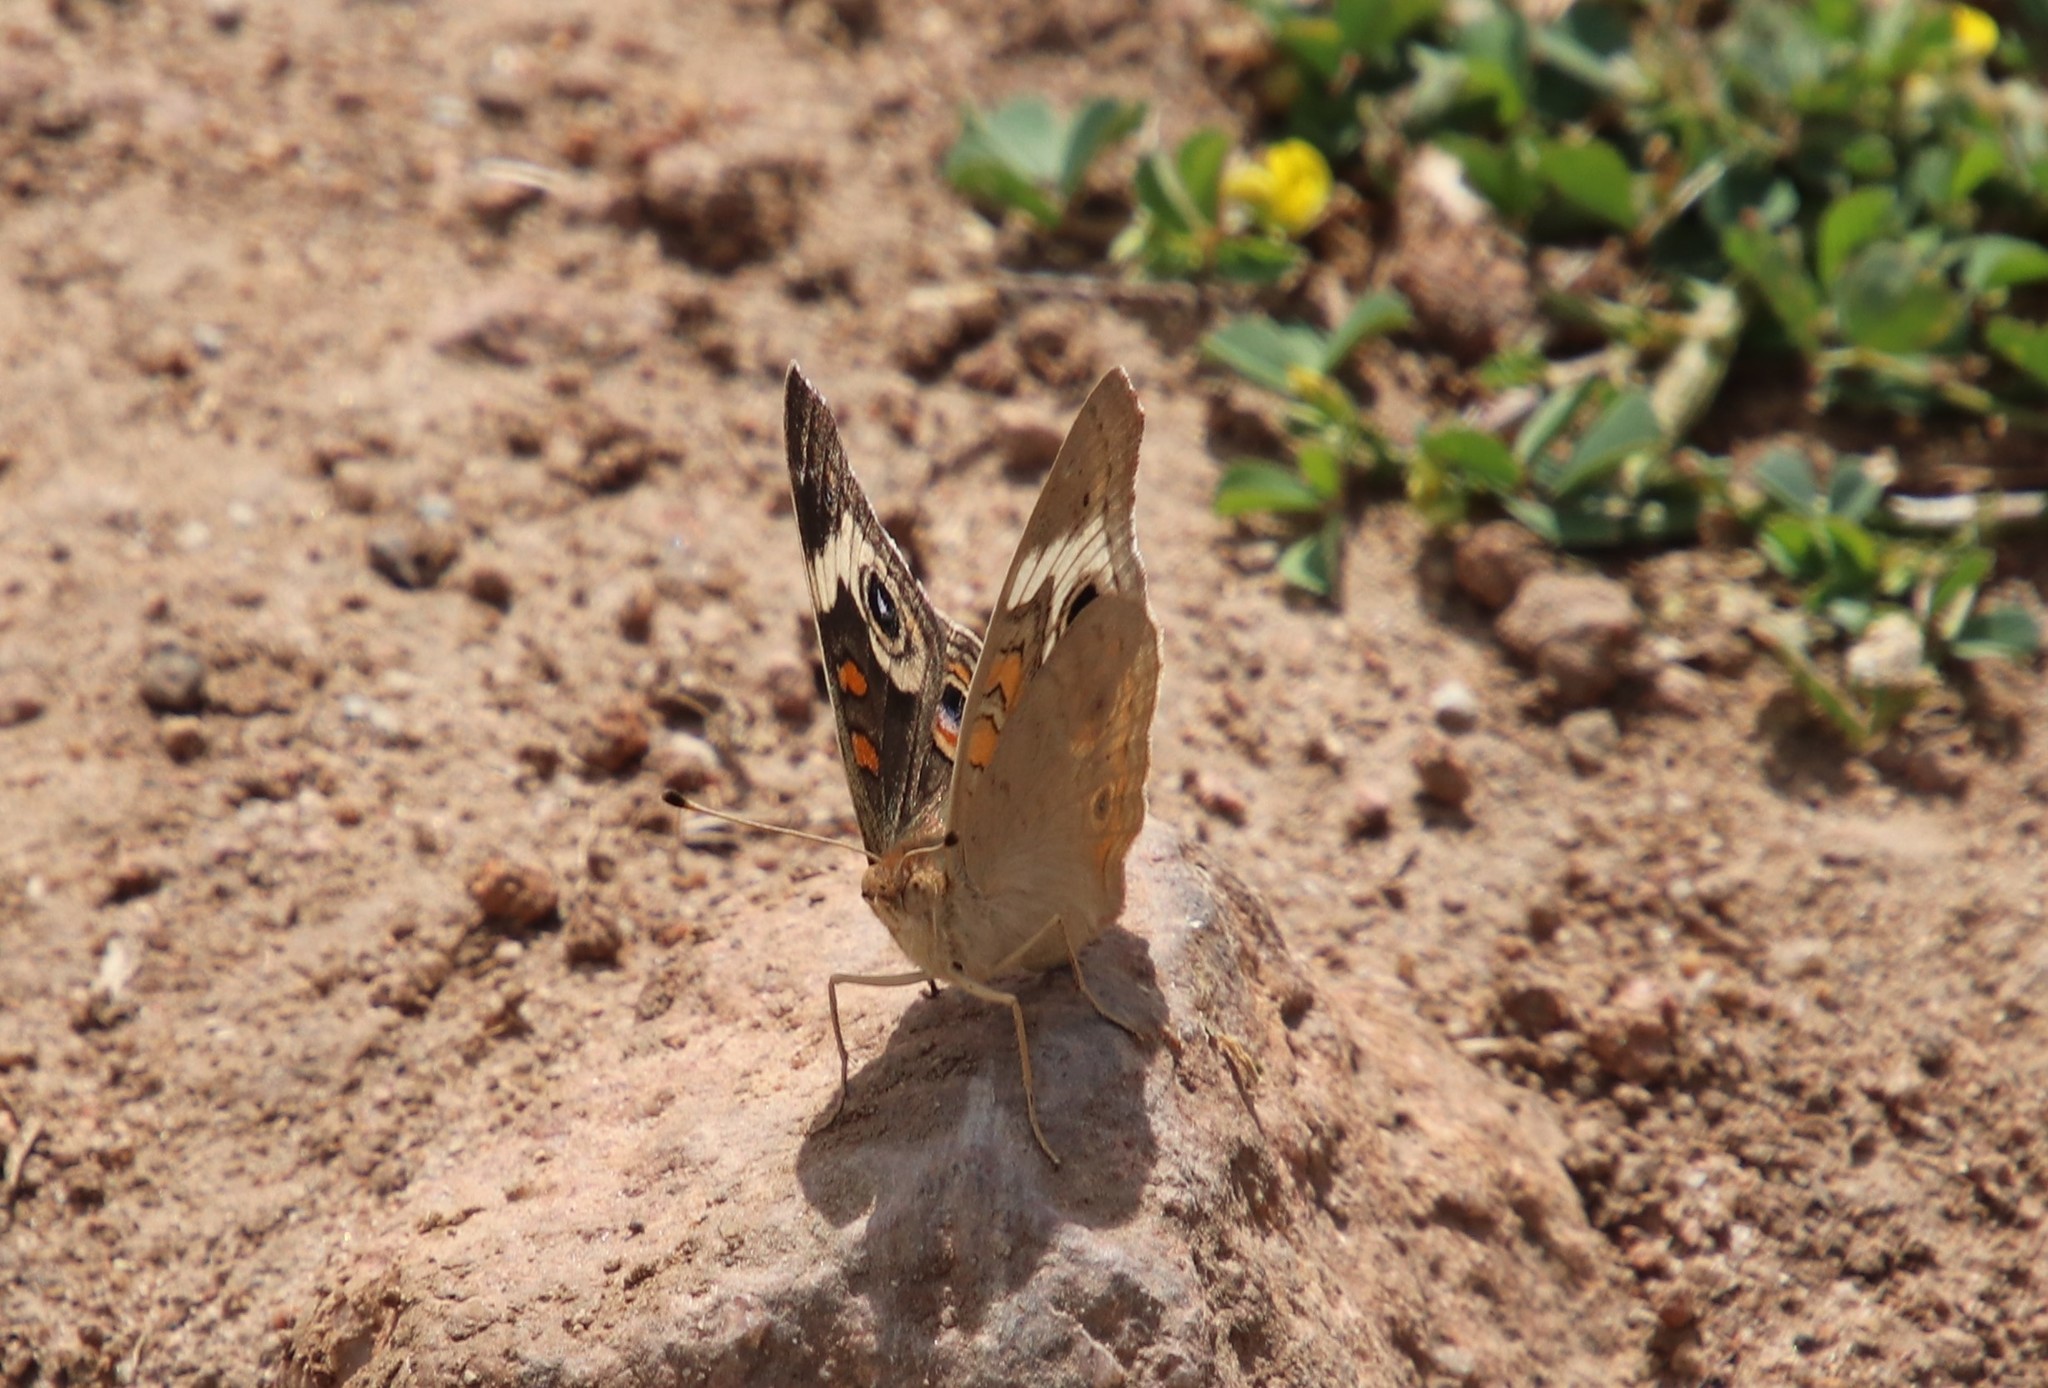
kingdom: Animalia
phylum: Arthropoda
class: Insecta
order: Lepidoptera
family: Nymphalidae
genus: Junonia
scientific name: Junonia grisea
